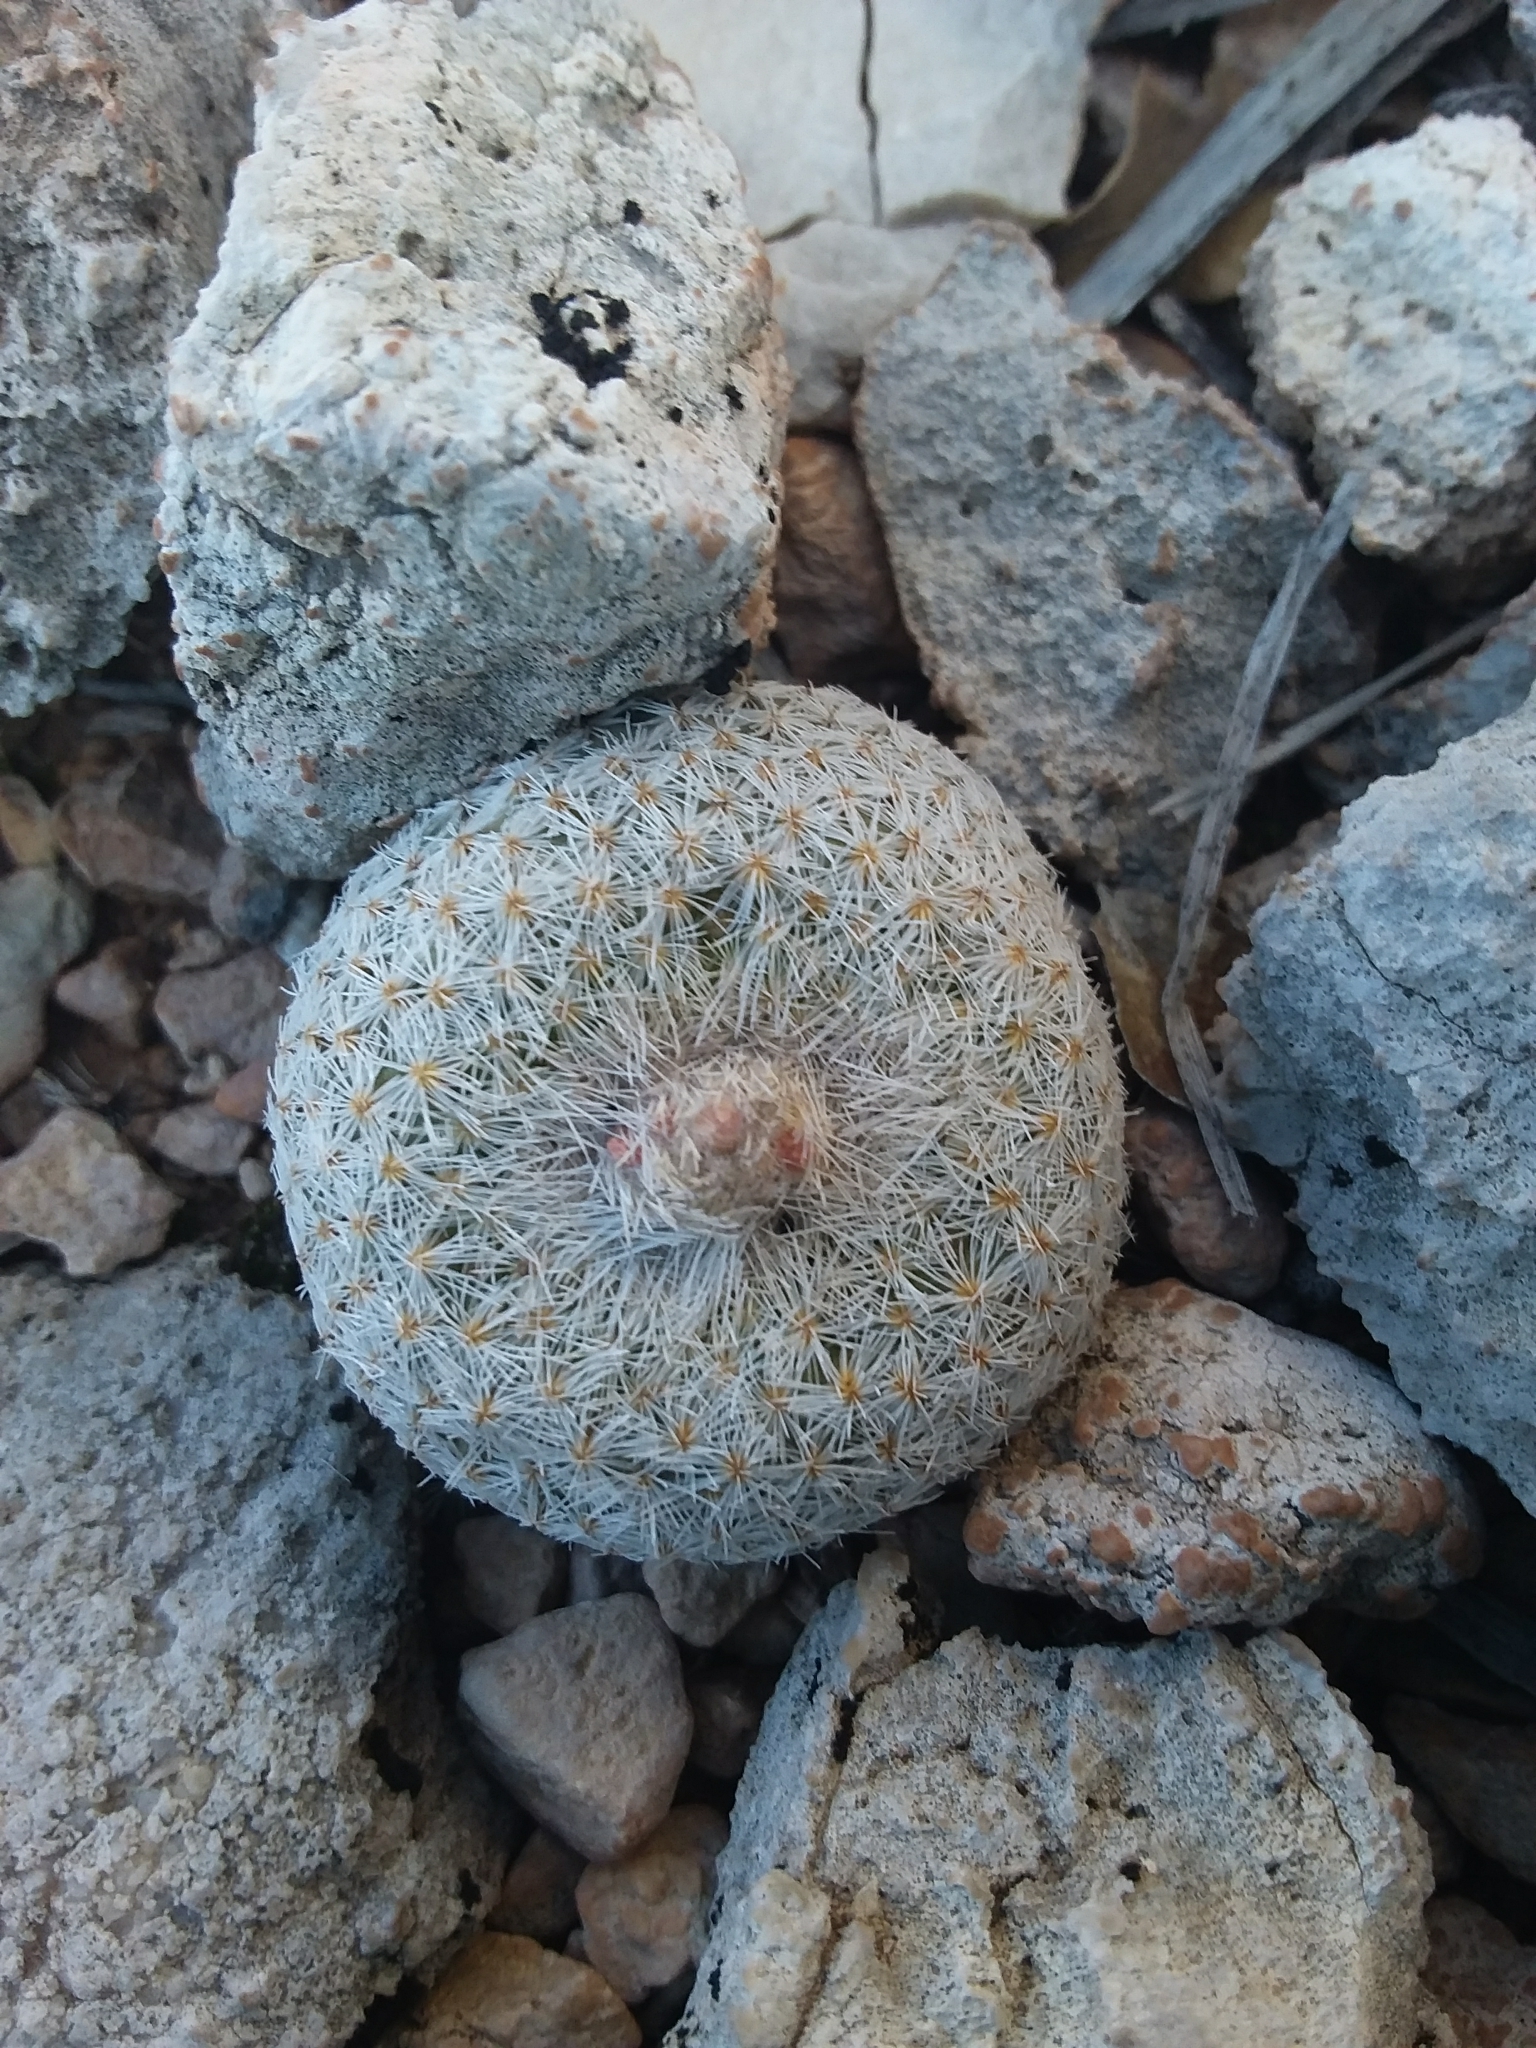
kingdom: Plantae
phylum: Tracheophyta
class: Magnoliopsida
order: Caryophyllales
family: Cactaceae
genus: Epithelantha
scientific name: Epithelantha micromeris
